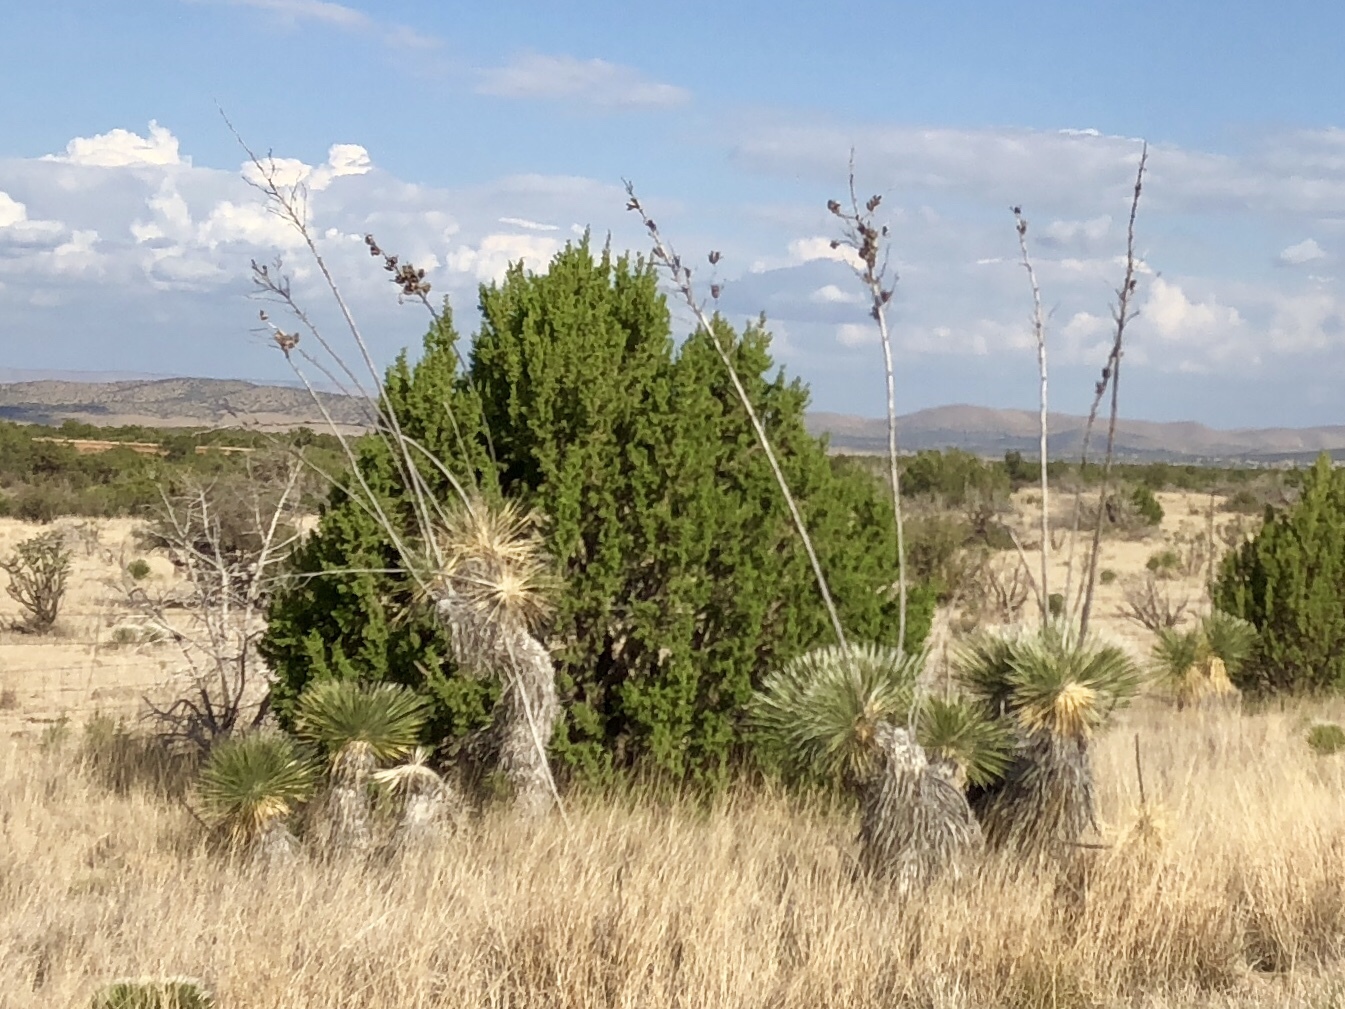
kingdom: Plantae
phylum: Tracheophyta
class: Liliopsida
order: Asparagales
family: Asparagaceae
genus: Yucca
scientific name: Yucca elata
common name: Palmella
